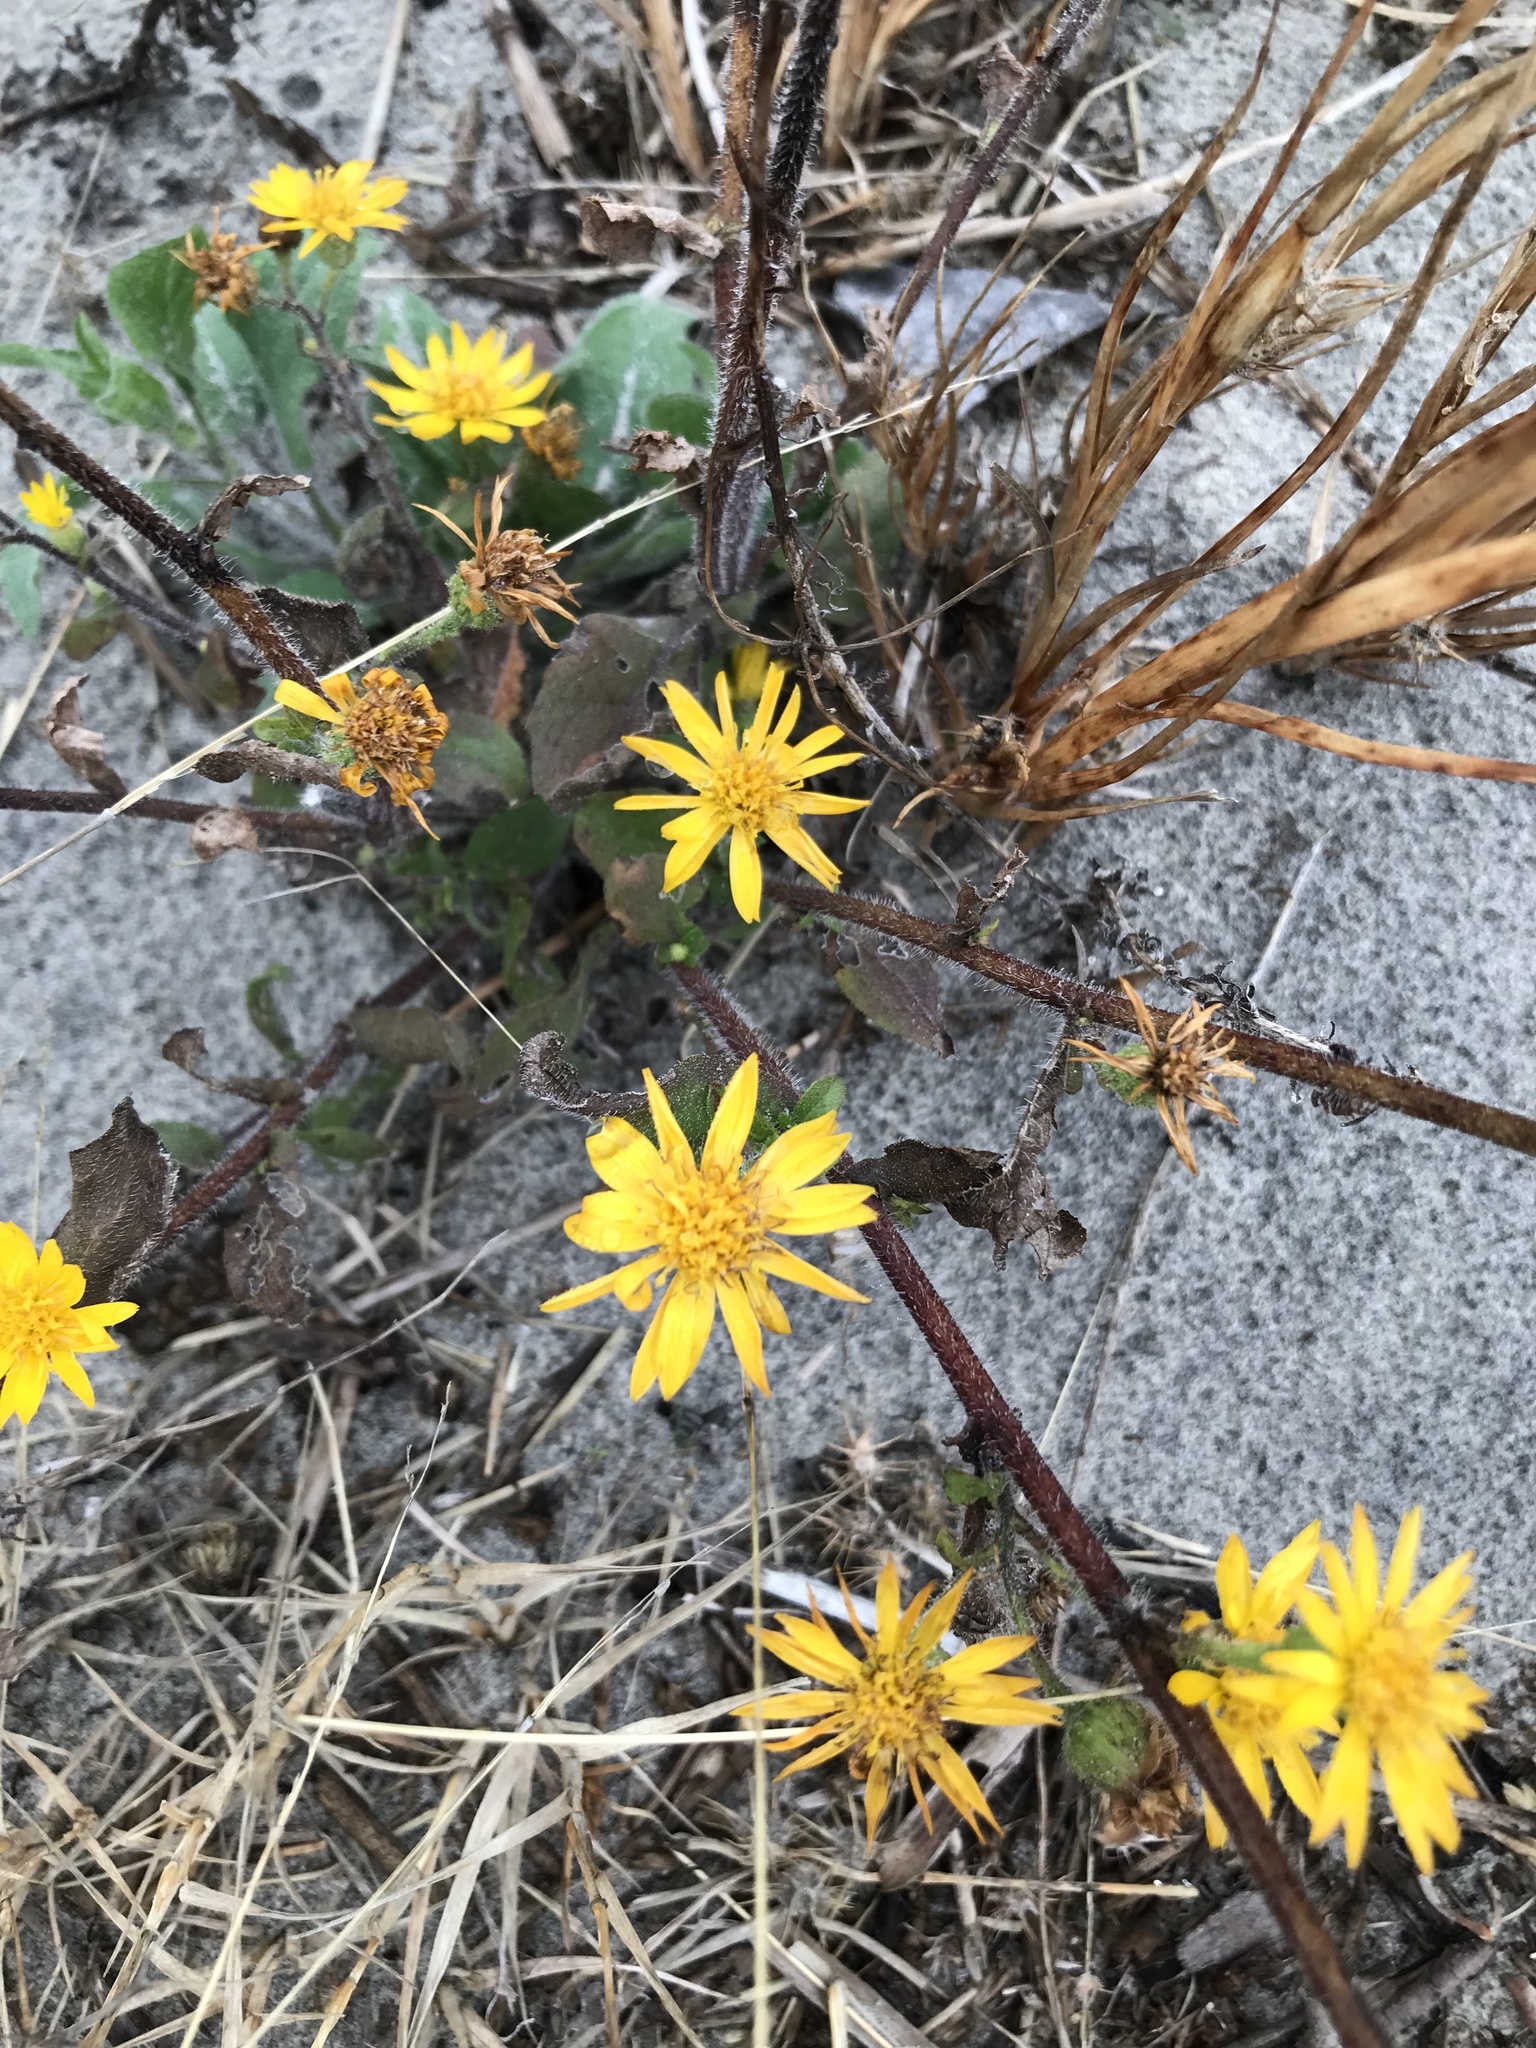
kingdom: Plantae
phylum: Tracheophyta
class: Magnoliopsida
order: Asterales
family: Asteraceae
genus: Heterotheca
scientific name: Heterotheca subaxillaris
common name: Camphorweed
